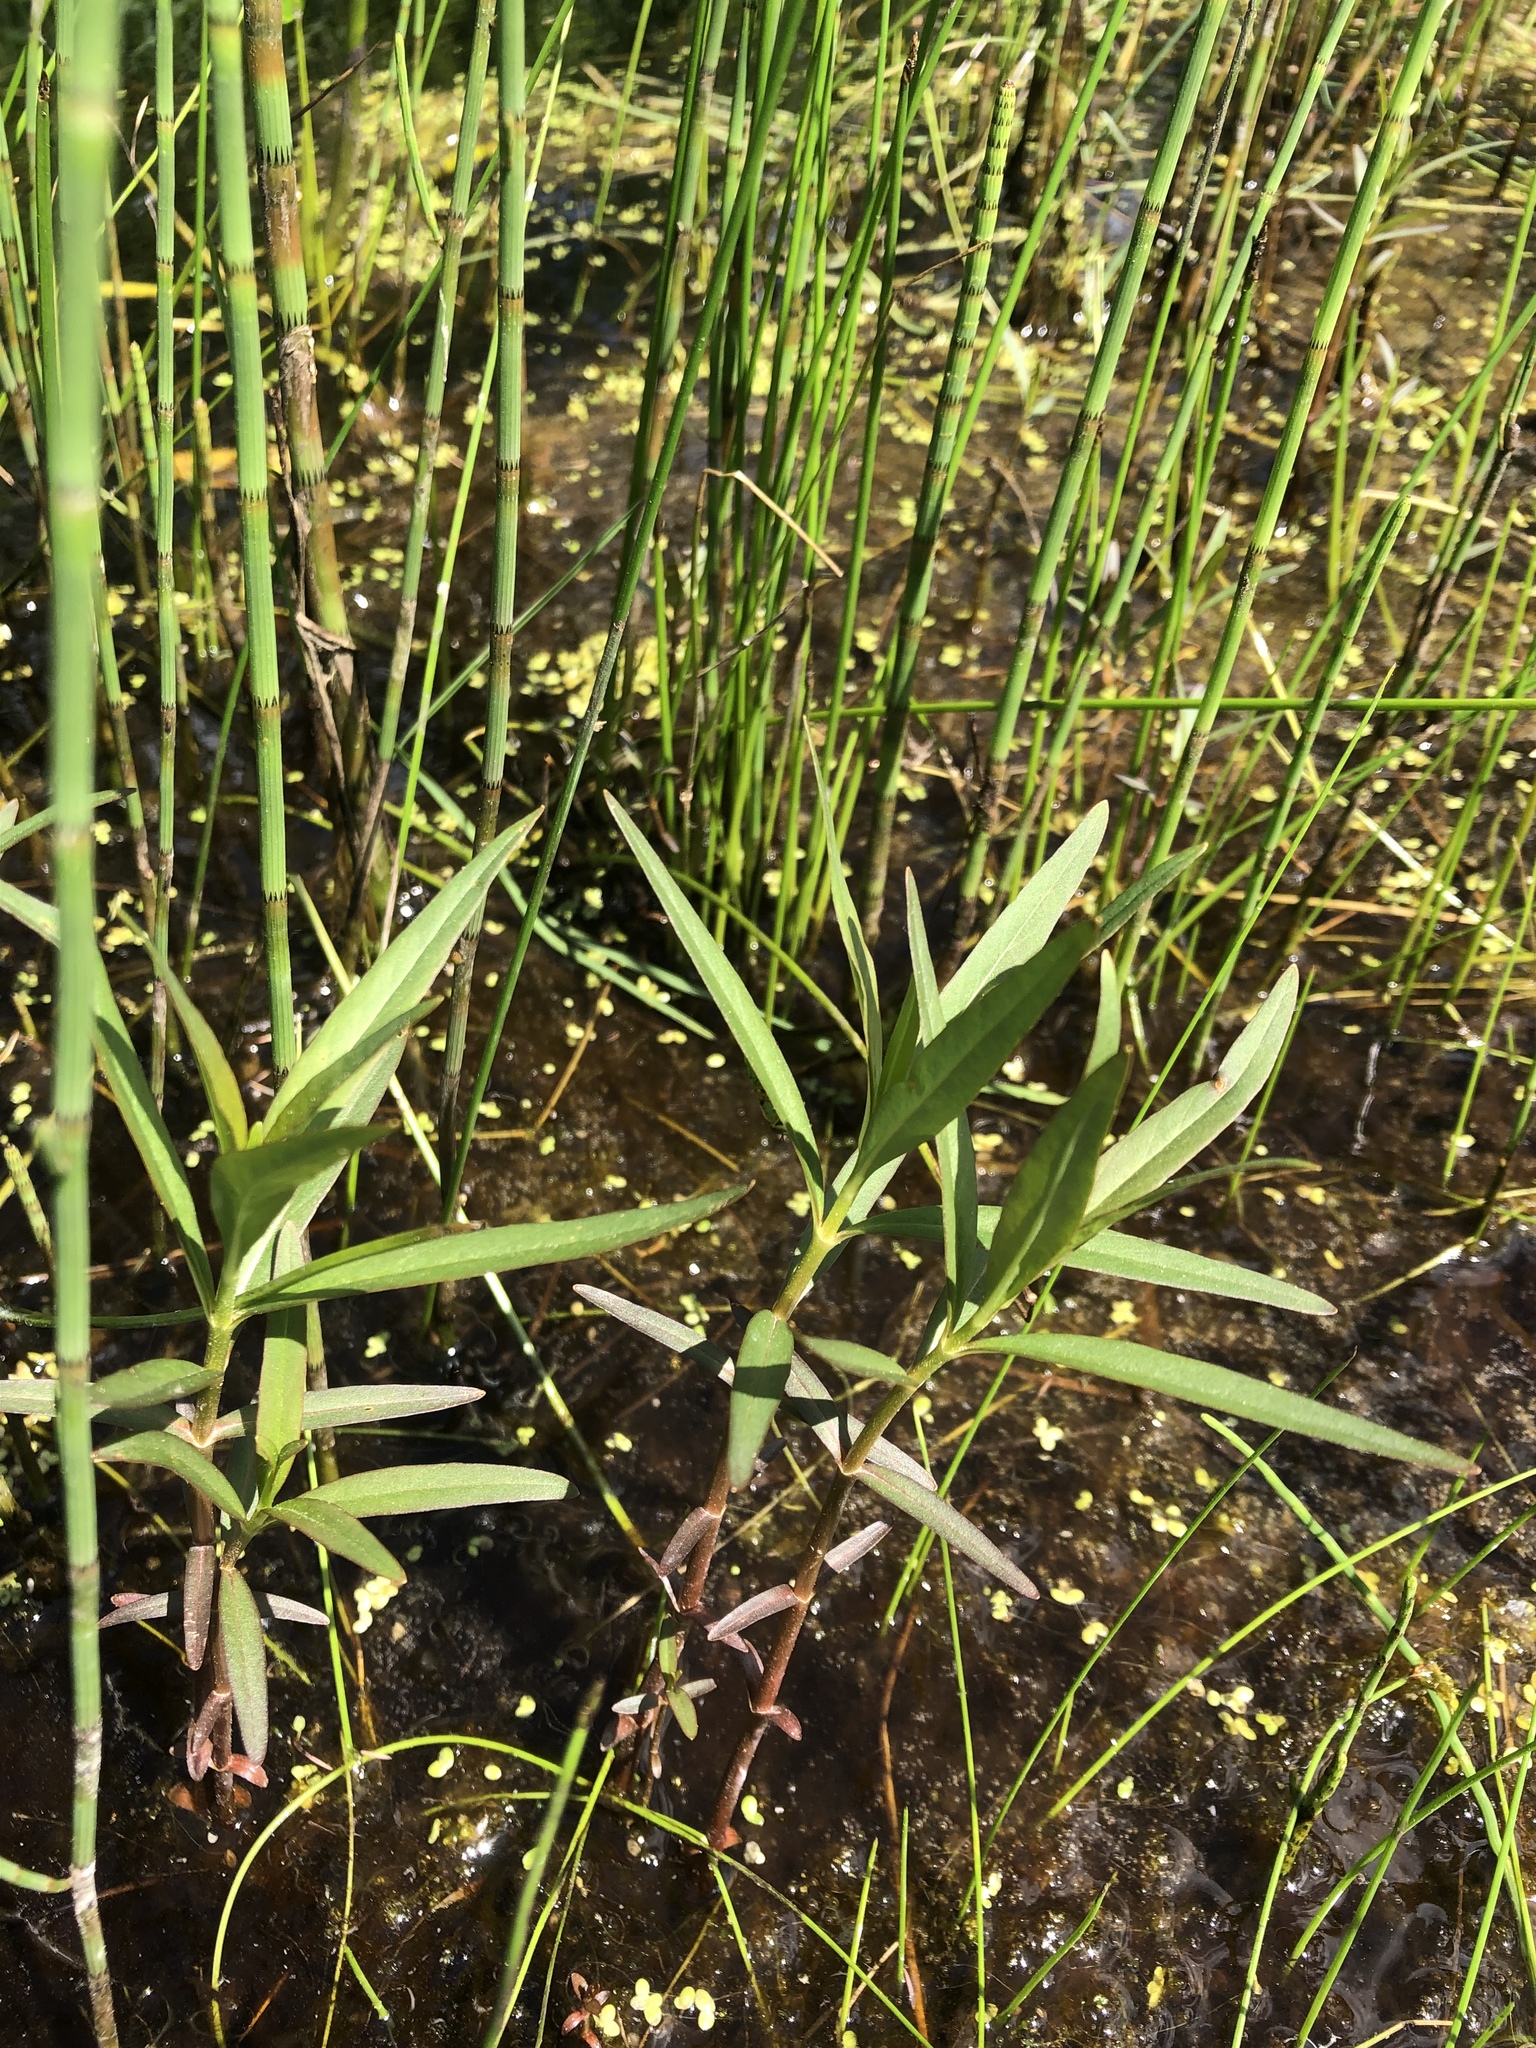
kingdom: Plantae
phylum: Tracheophyta
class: Magnoliopsida
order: Ericales
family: Primulaceae
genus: Lysimachia
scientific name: Lysimachia thyrsiflora
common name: Tufted loosestrife
